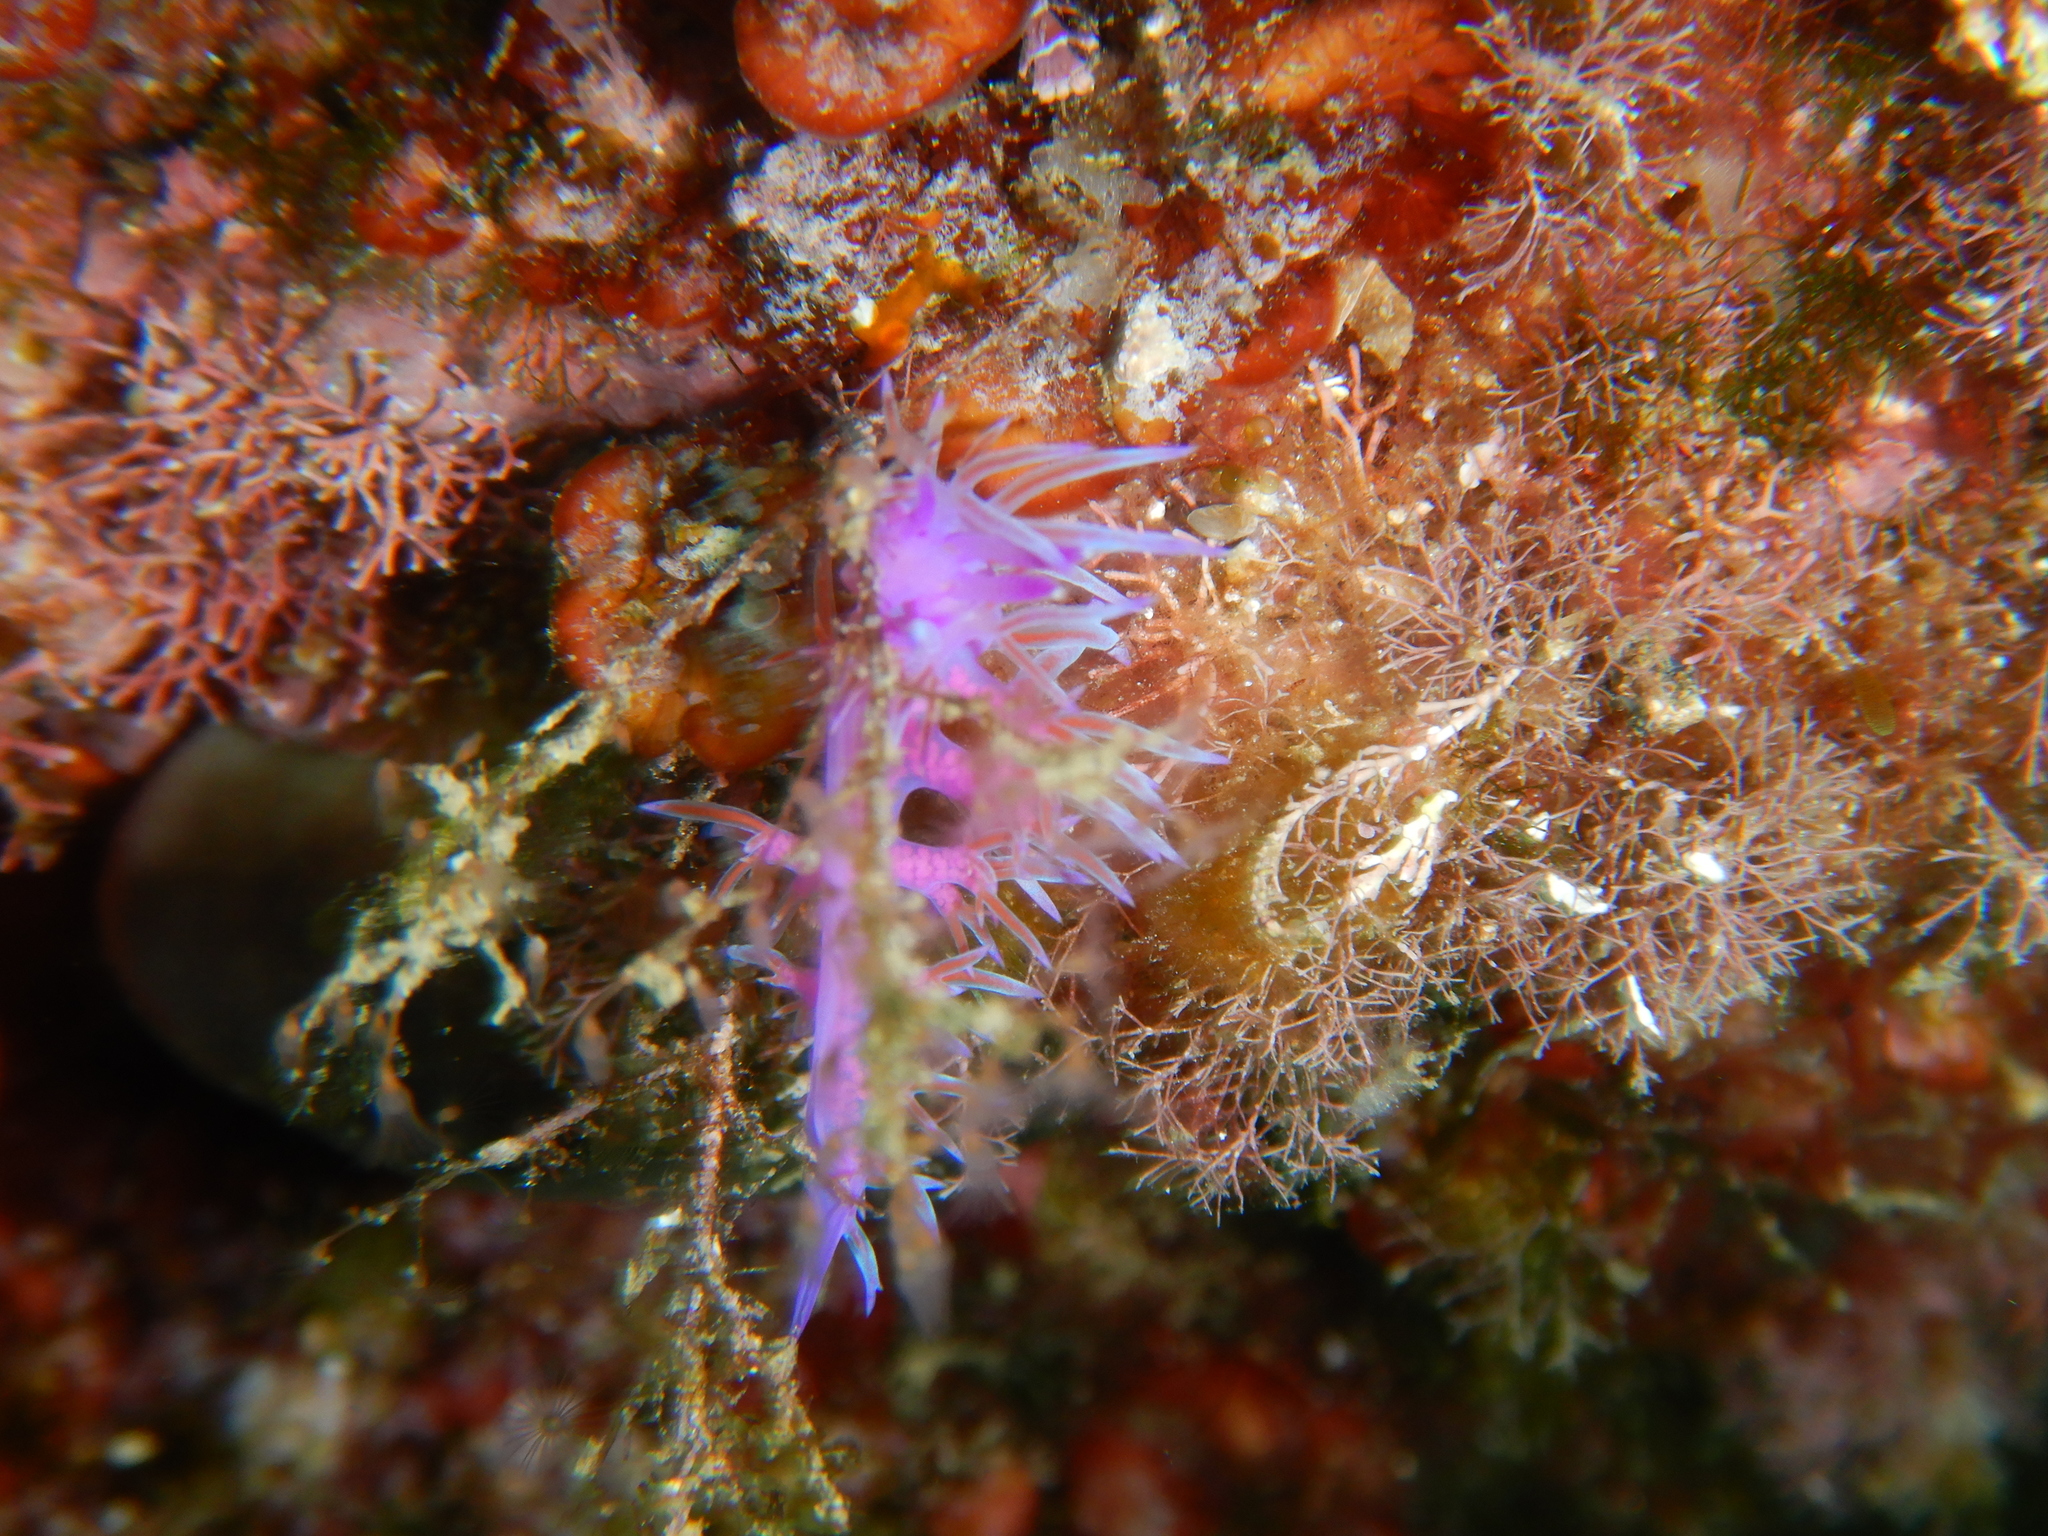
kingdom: Animalia
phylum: Mollusca
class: Gastropoda
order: Nudibranchia
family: Flabellinidae
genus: Flabellina
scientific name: Flabellina affinis
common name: Mediterranean violet aeolid
